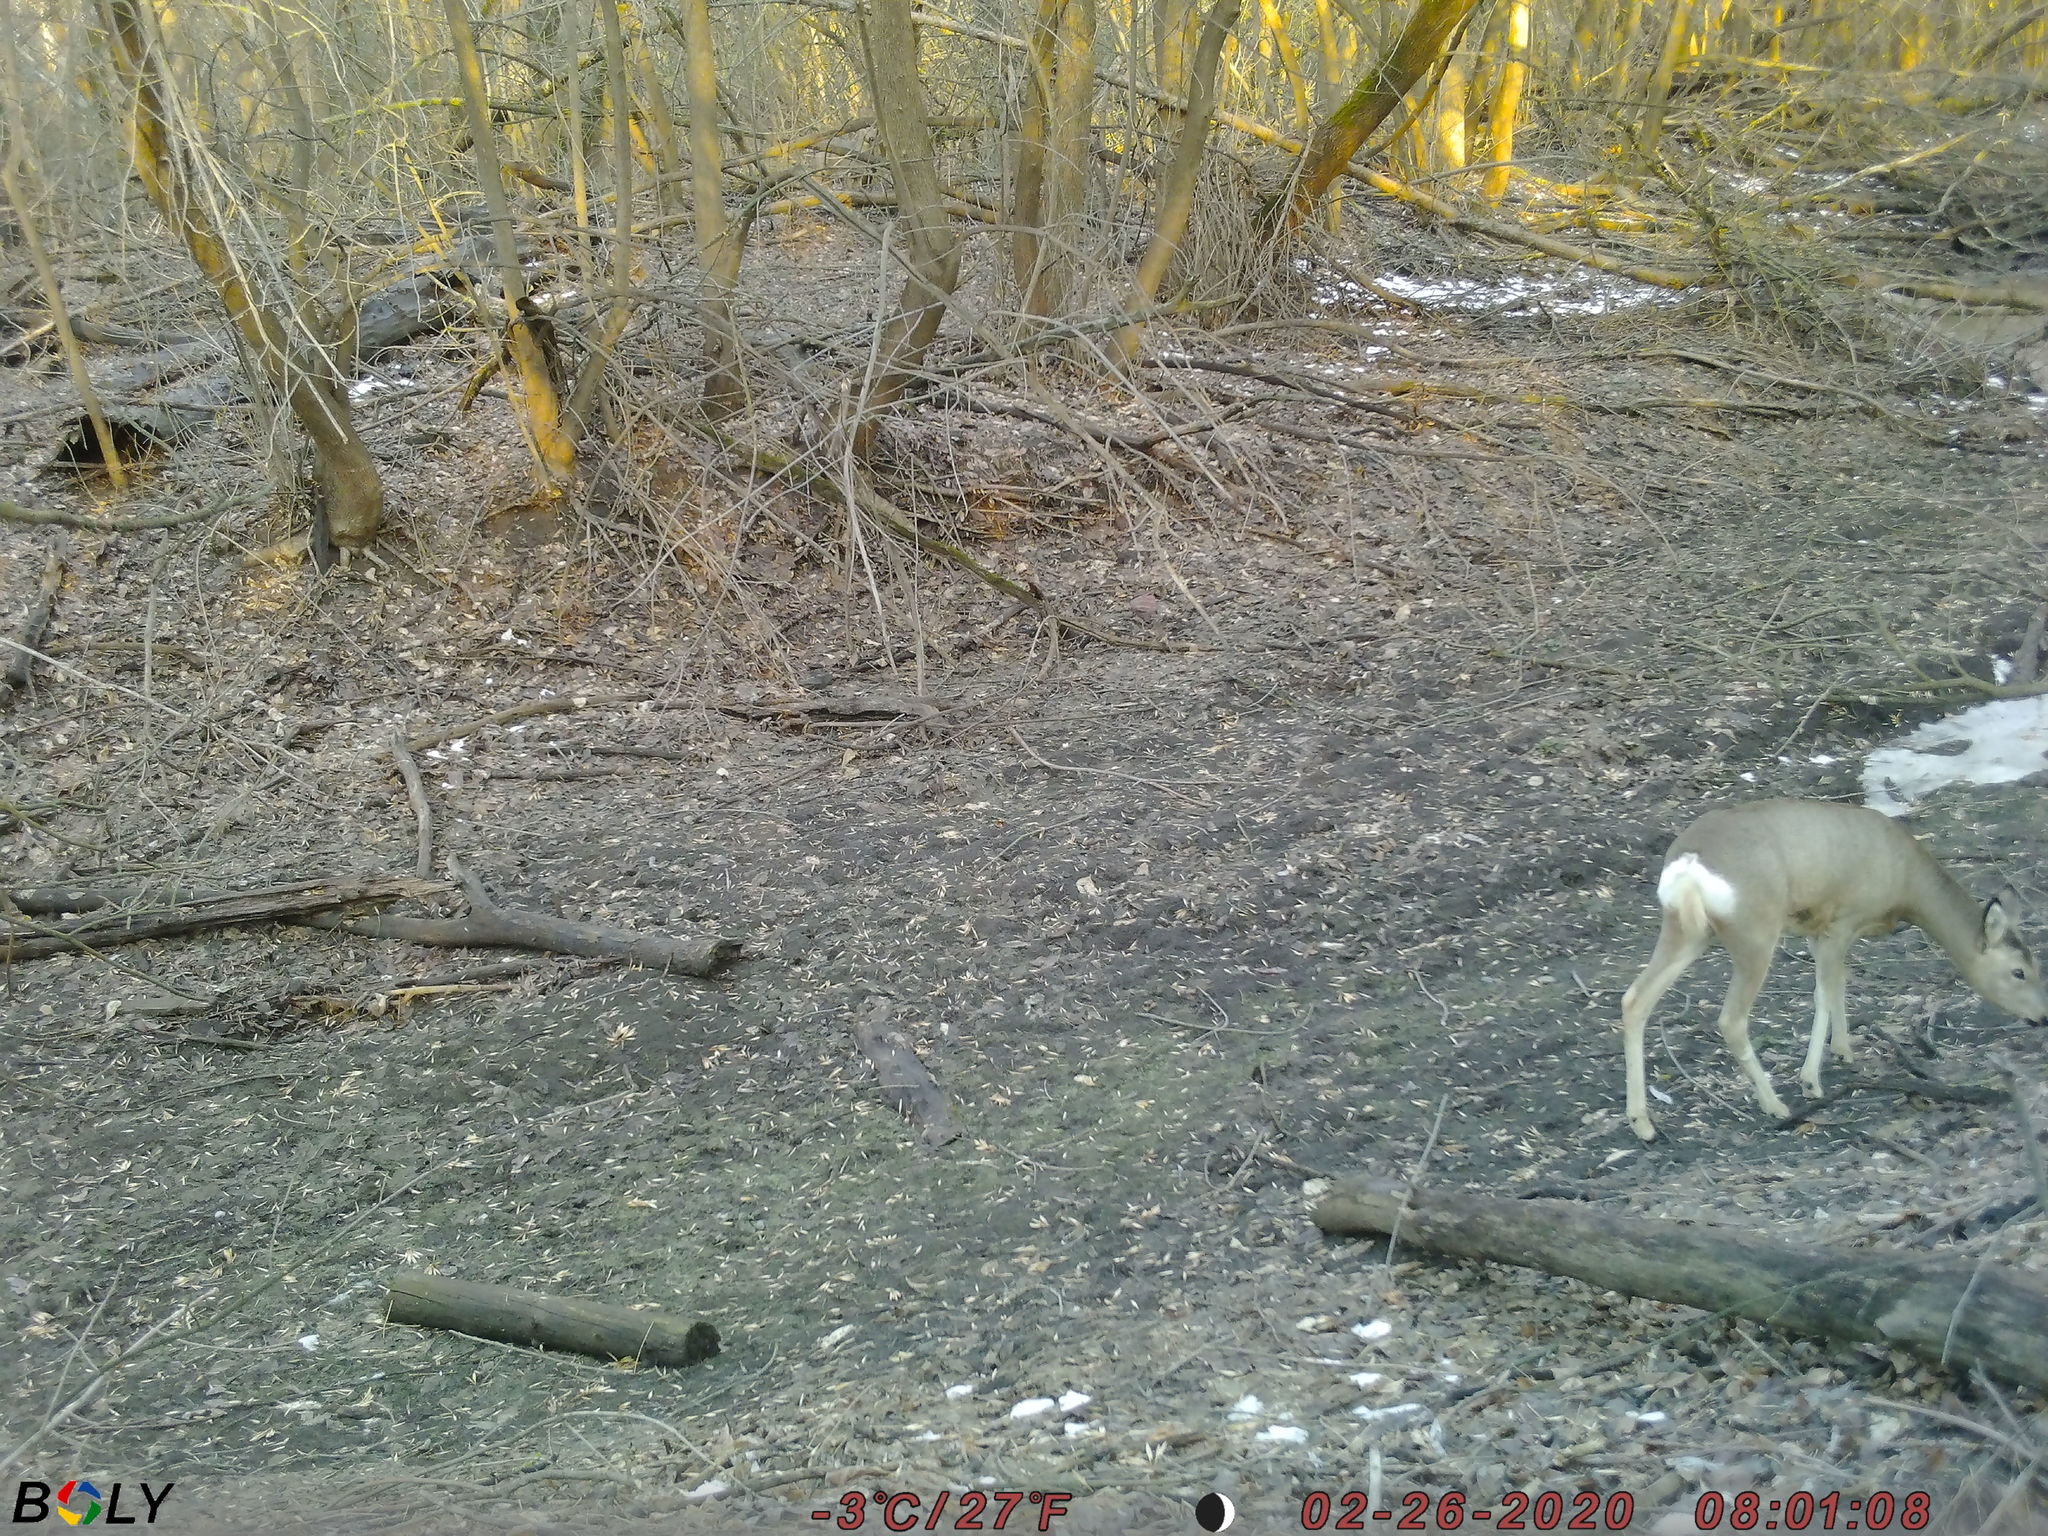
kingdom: Animalia
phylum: Chordata
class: Mammalia
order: Artiodactyla
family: Cervidae
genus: Capreolus
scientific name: Capreolus pygargus
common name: Siberian roe
